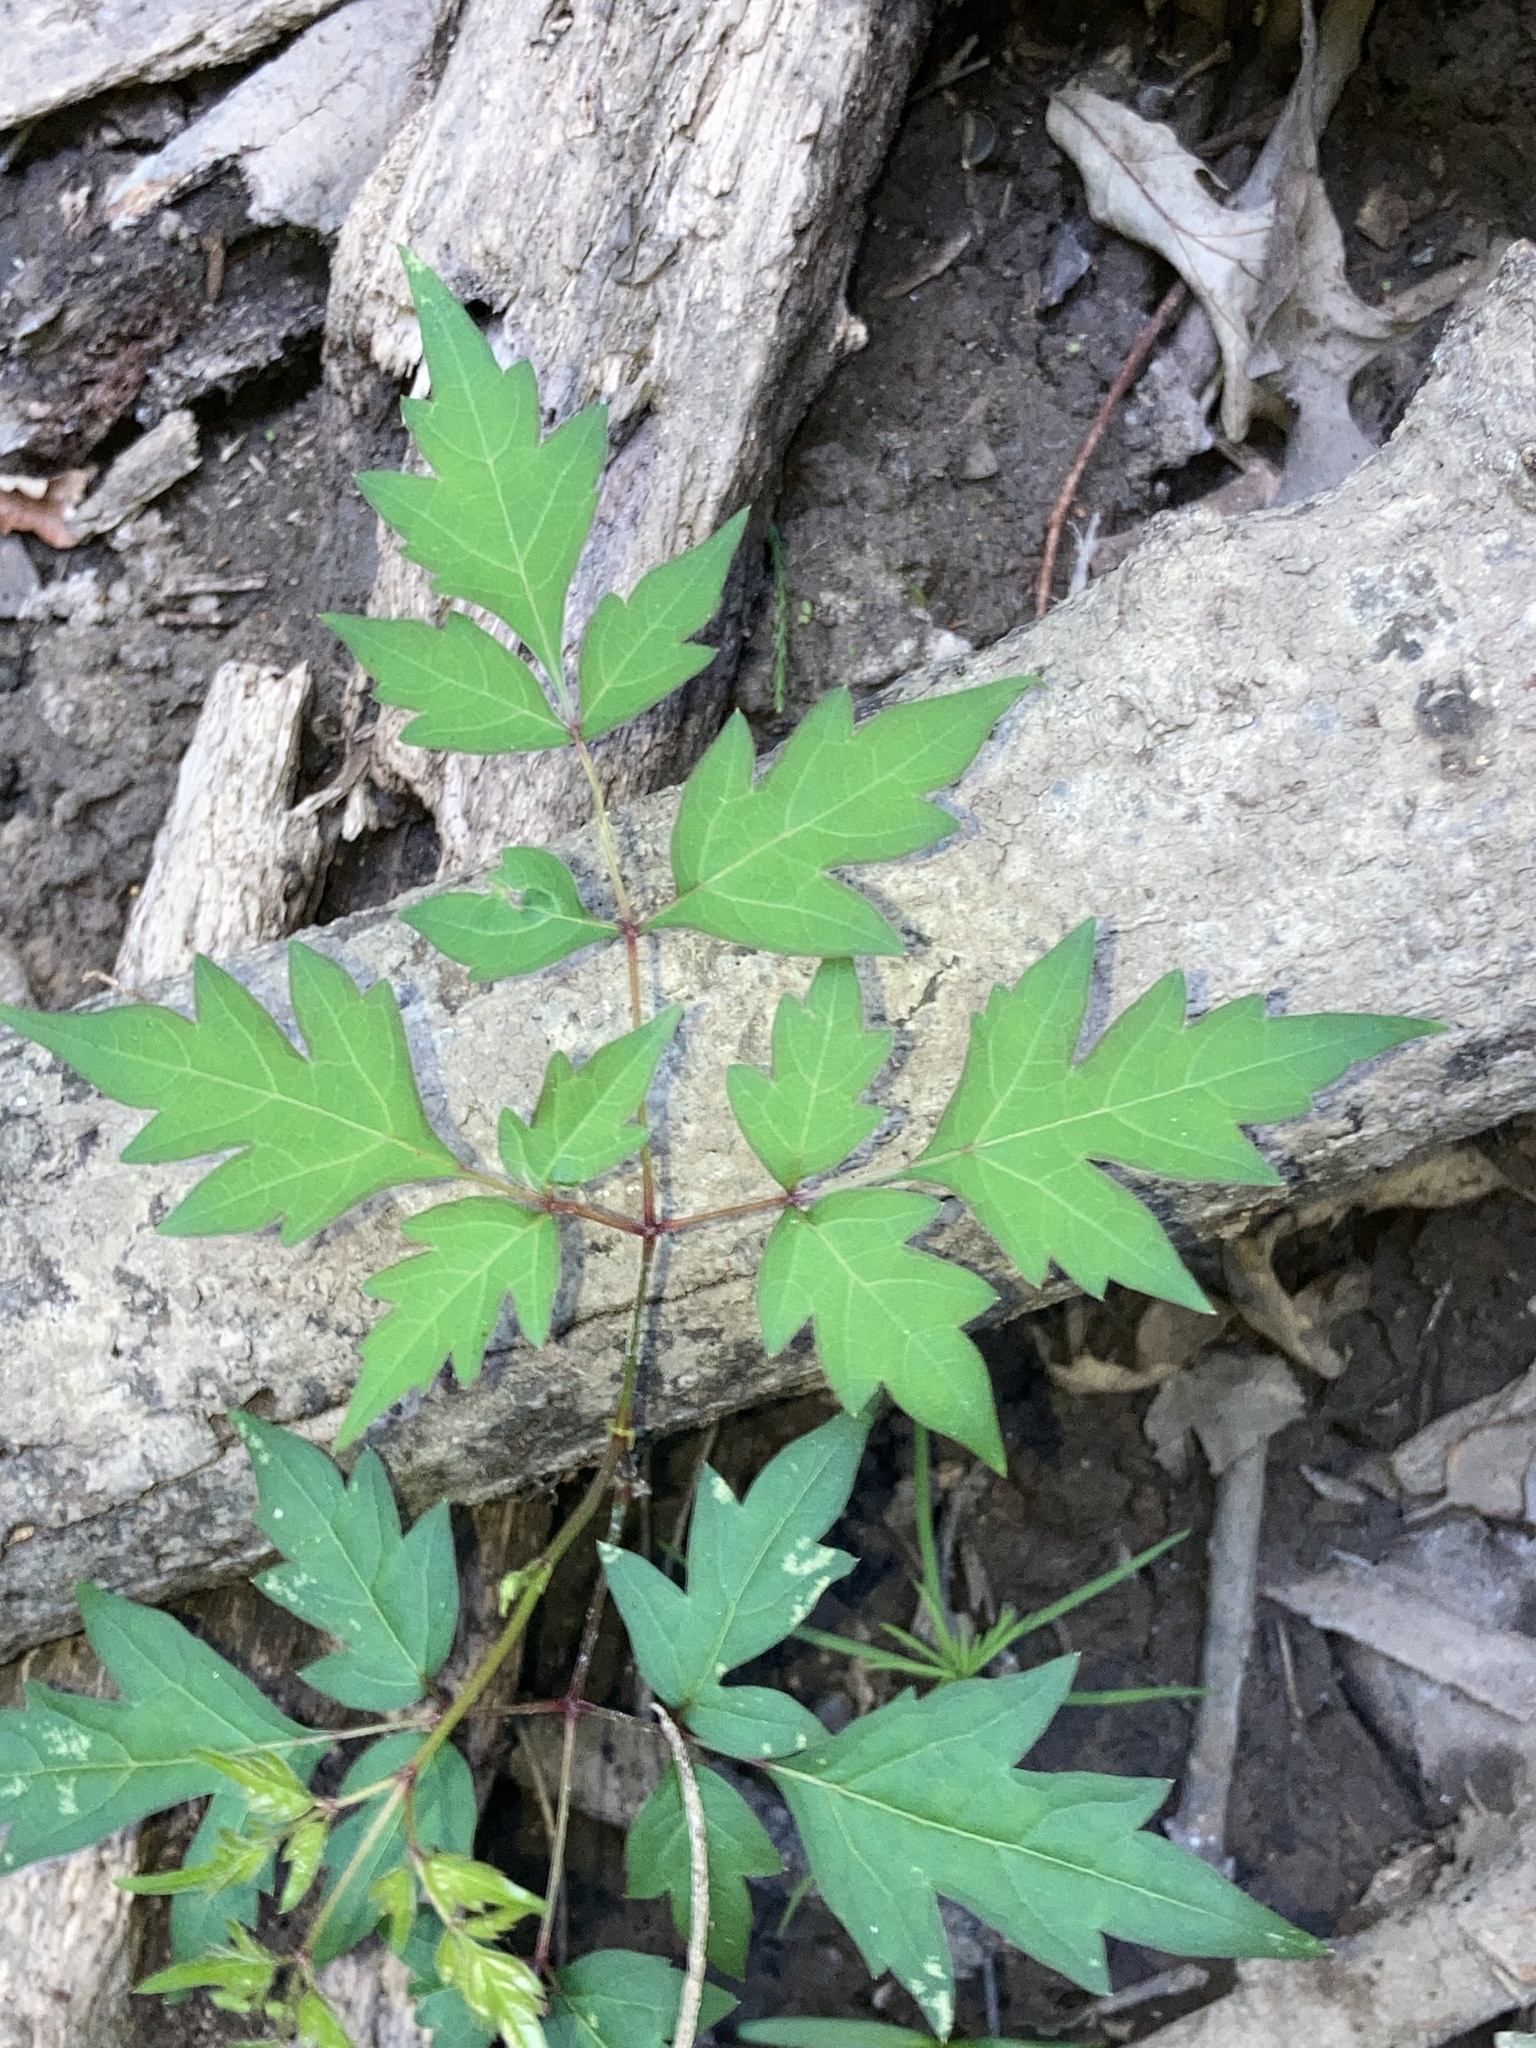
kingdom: Plantae
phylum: Tracheophyta
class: Magnoliopsida
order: Vitales
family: Vitaceae
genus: Nekemias
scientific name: Nekemias arborea
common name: Peppervine
